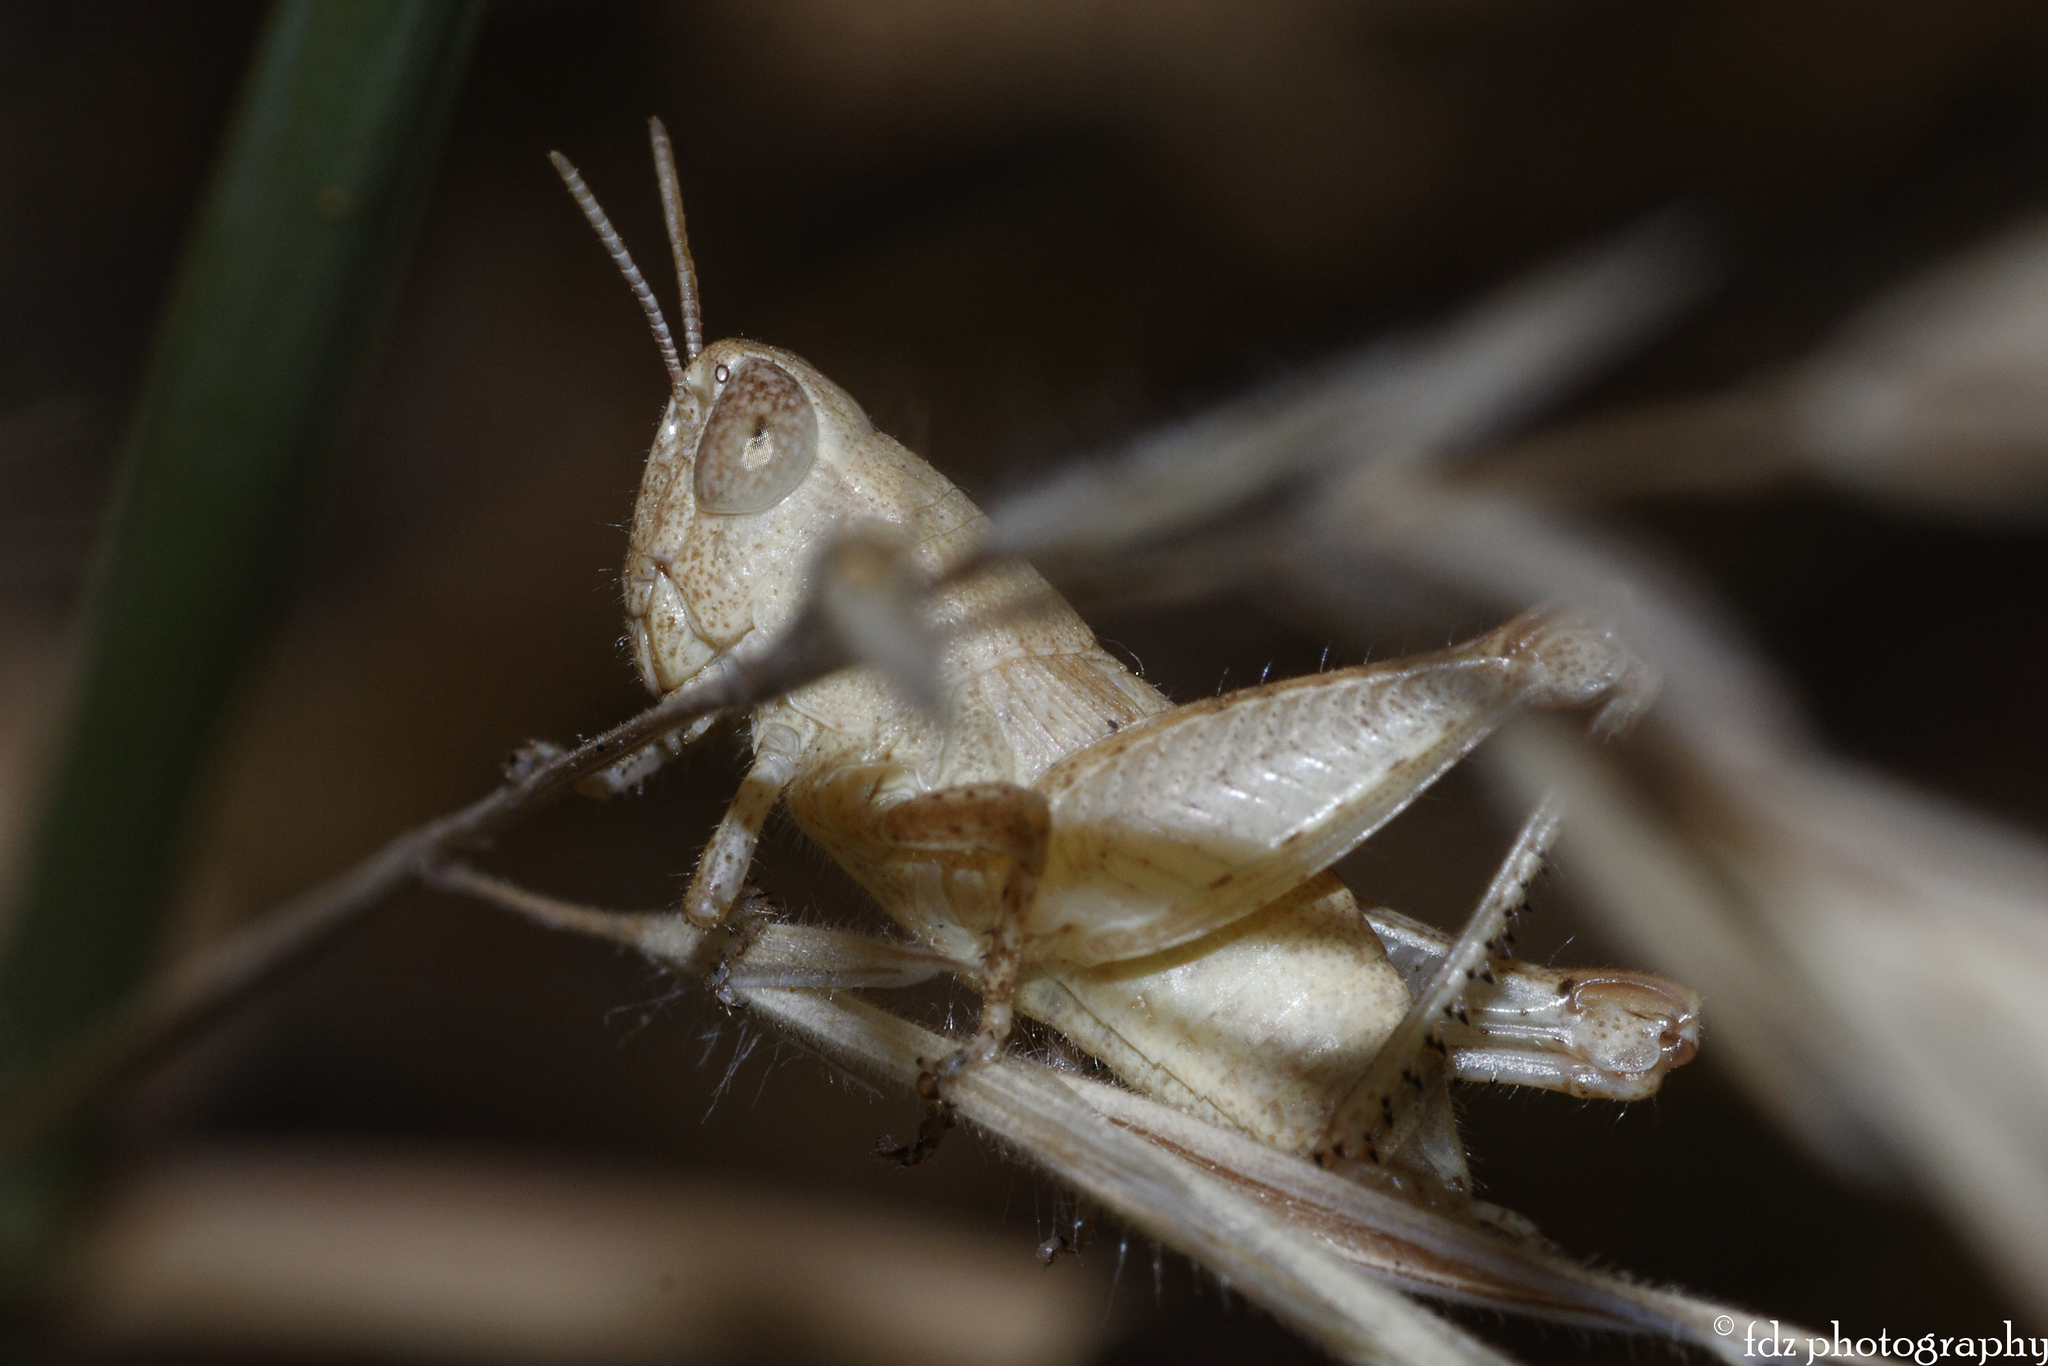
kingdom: Animalia
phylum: Arthropoda
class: Insecta
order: Orthoptera
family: Acrididae
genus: Pezotettix
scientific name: Pezotettix giornae
